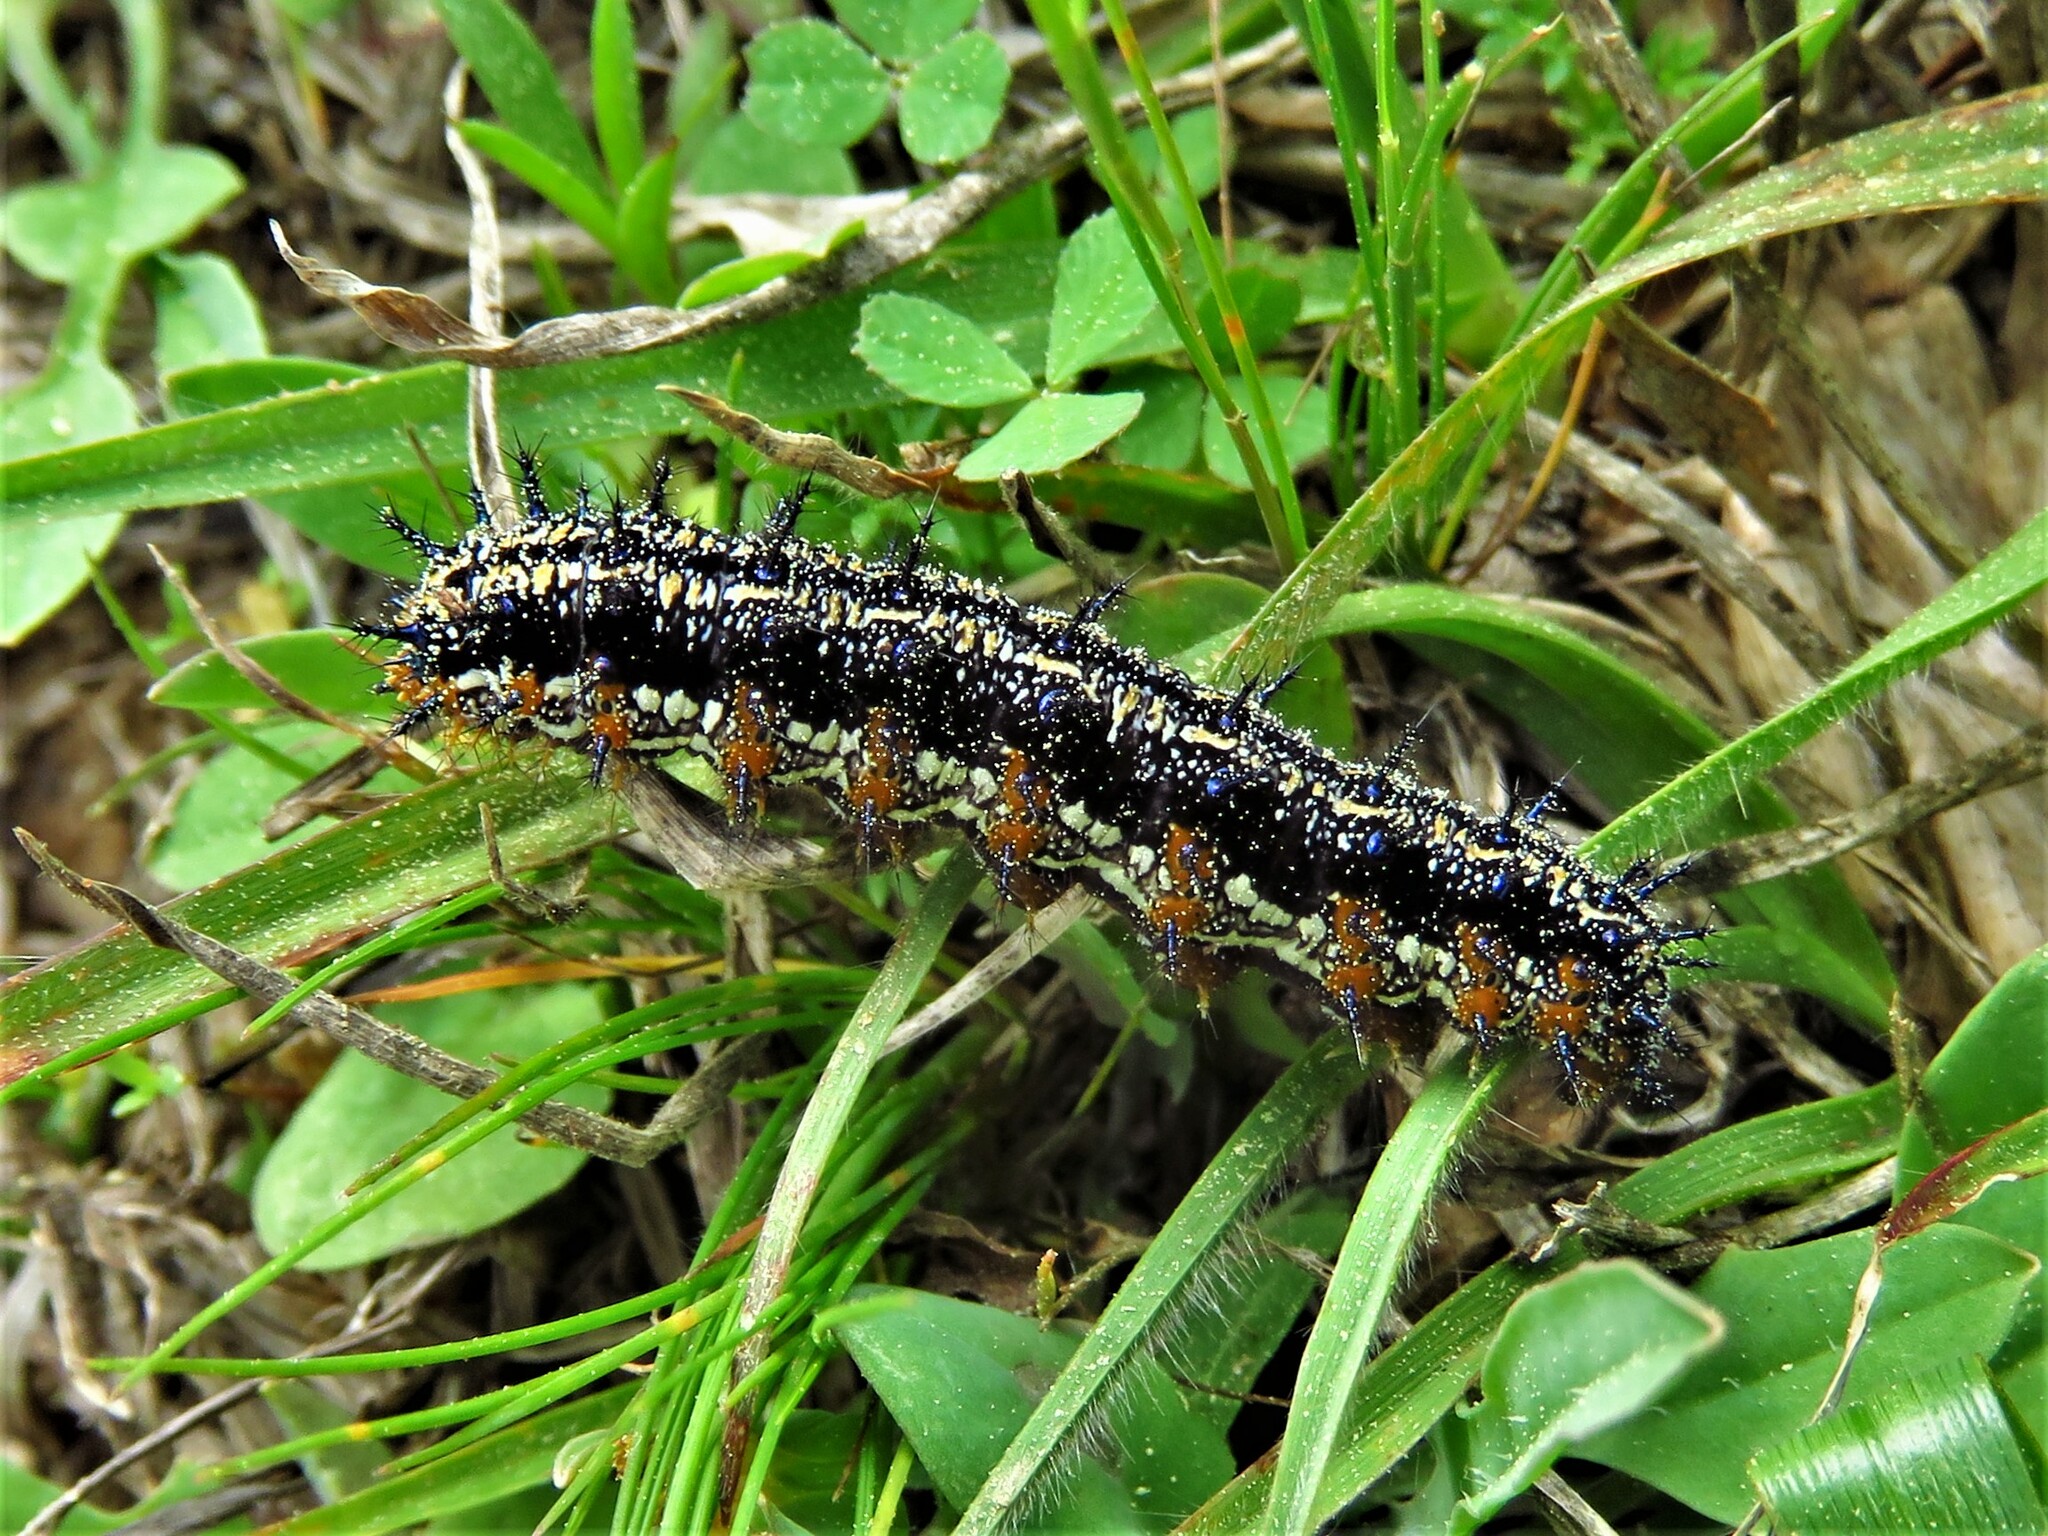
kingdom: Animalia
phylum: Arthropoda
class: Insecta
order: Lepidoptera
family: Nymphalidae
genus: Junonia
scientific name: Junonia coenia
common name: Common buckeye
